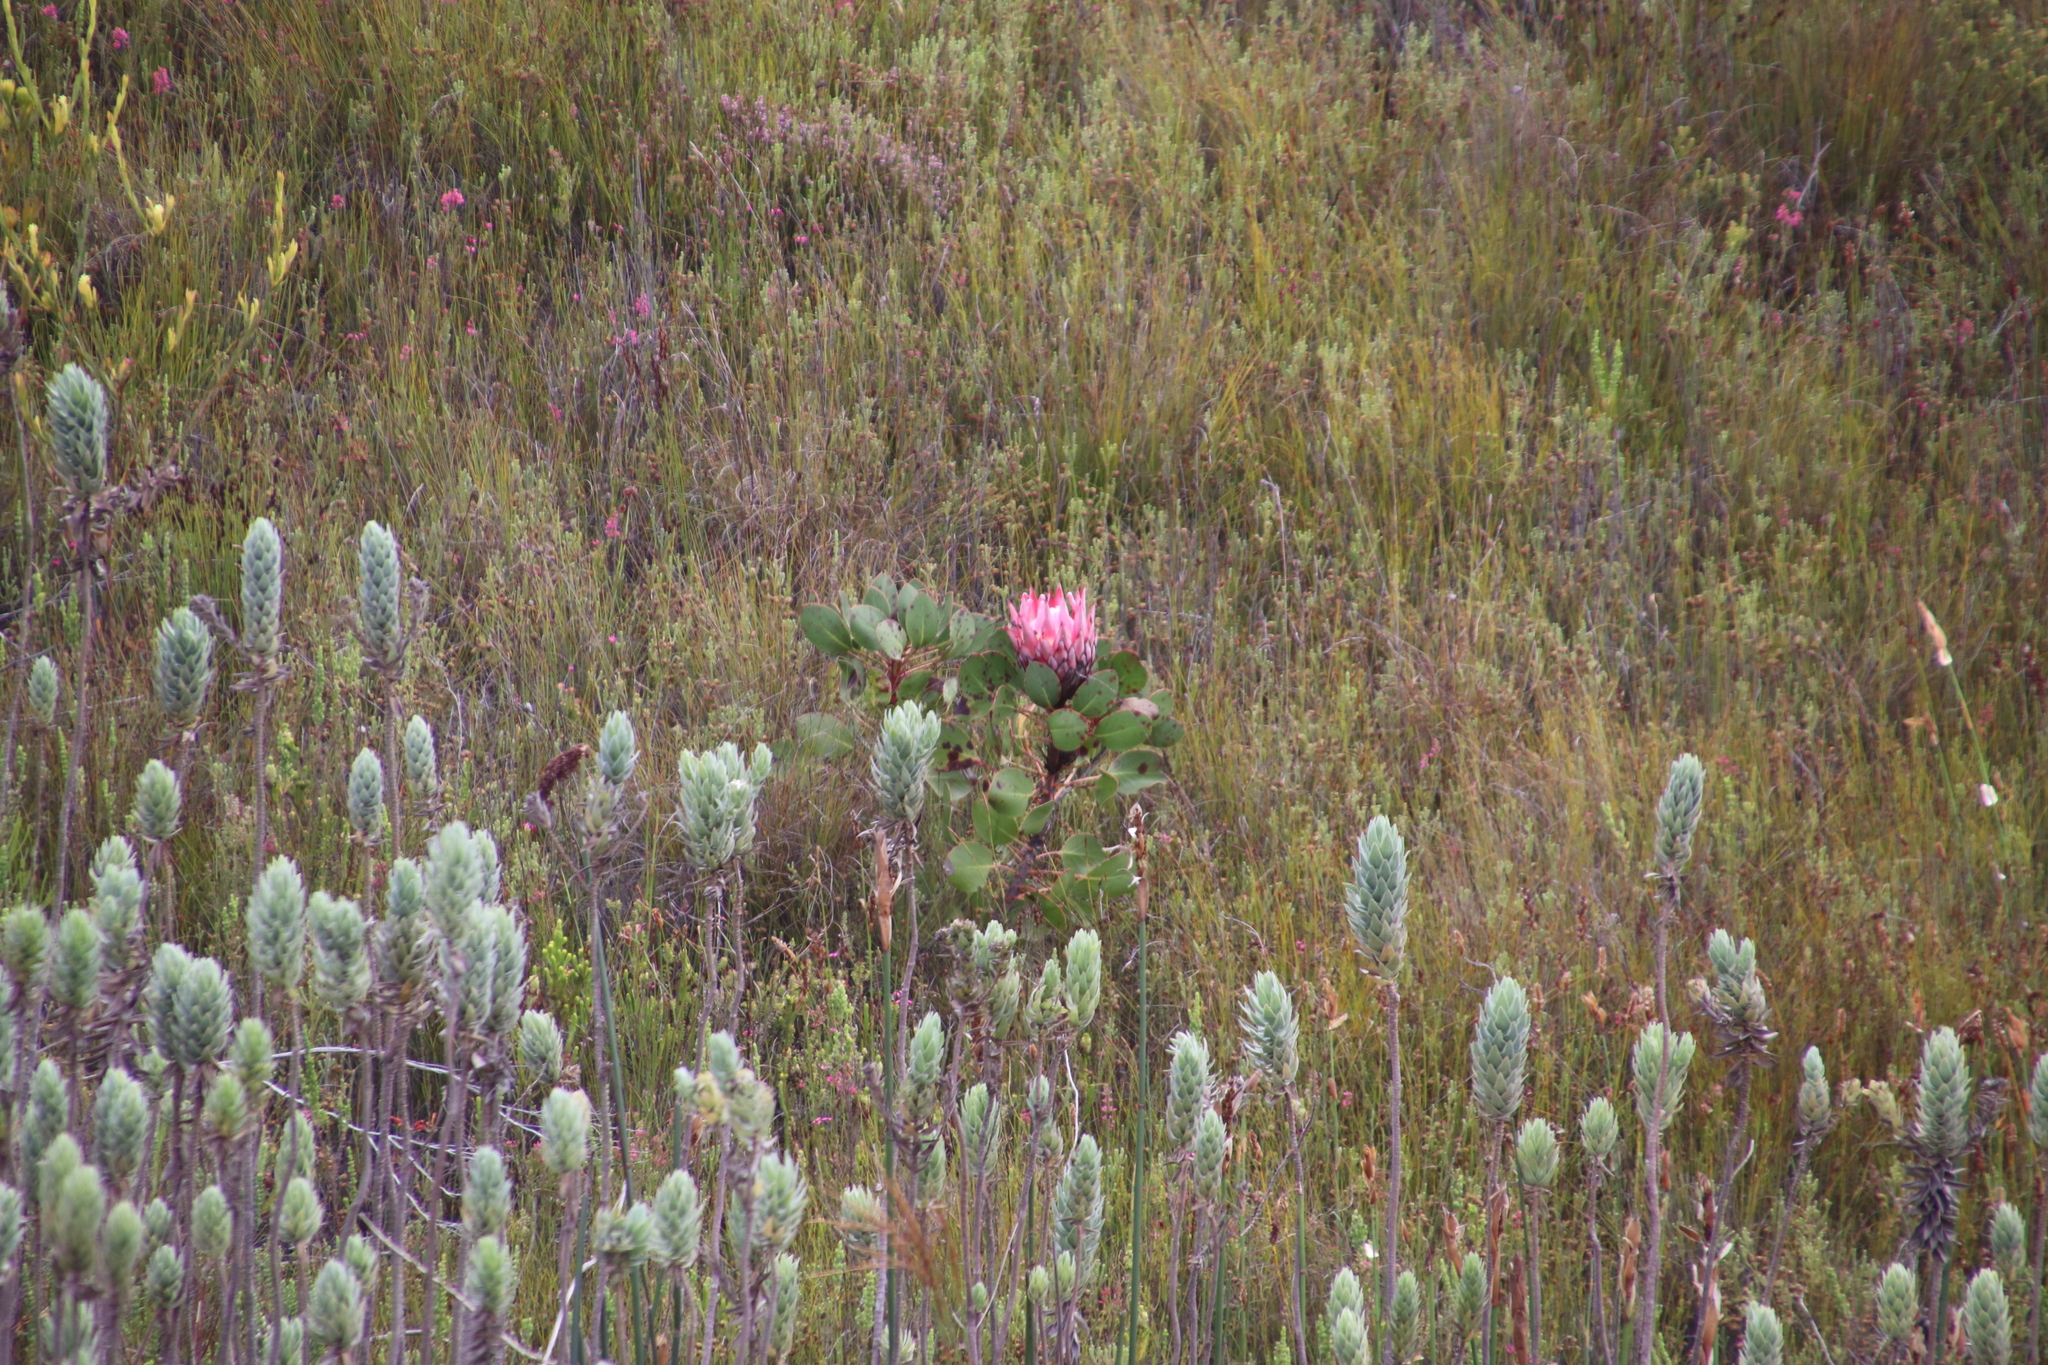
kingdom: Plantae
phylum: Tracheophyta
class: Magnoliopsida
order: Proteales
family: Proteaceae
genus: Protea
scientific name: Protea cynaroides
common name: King protea
